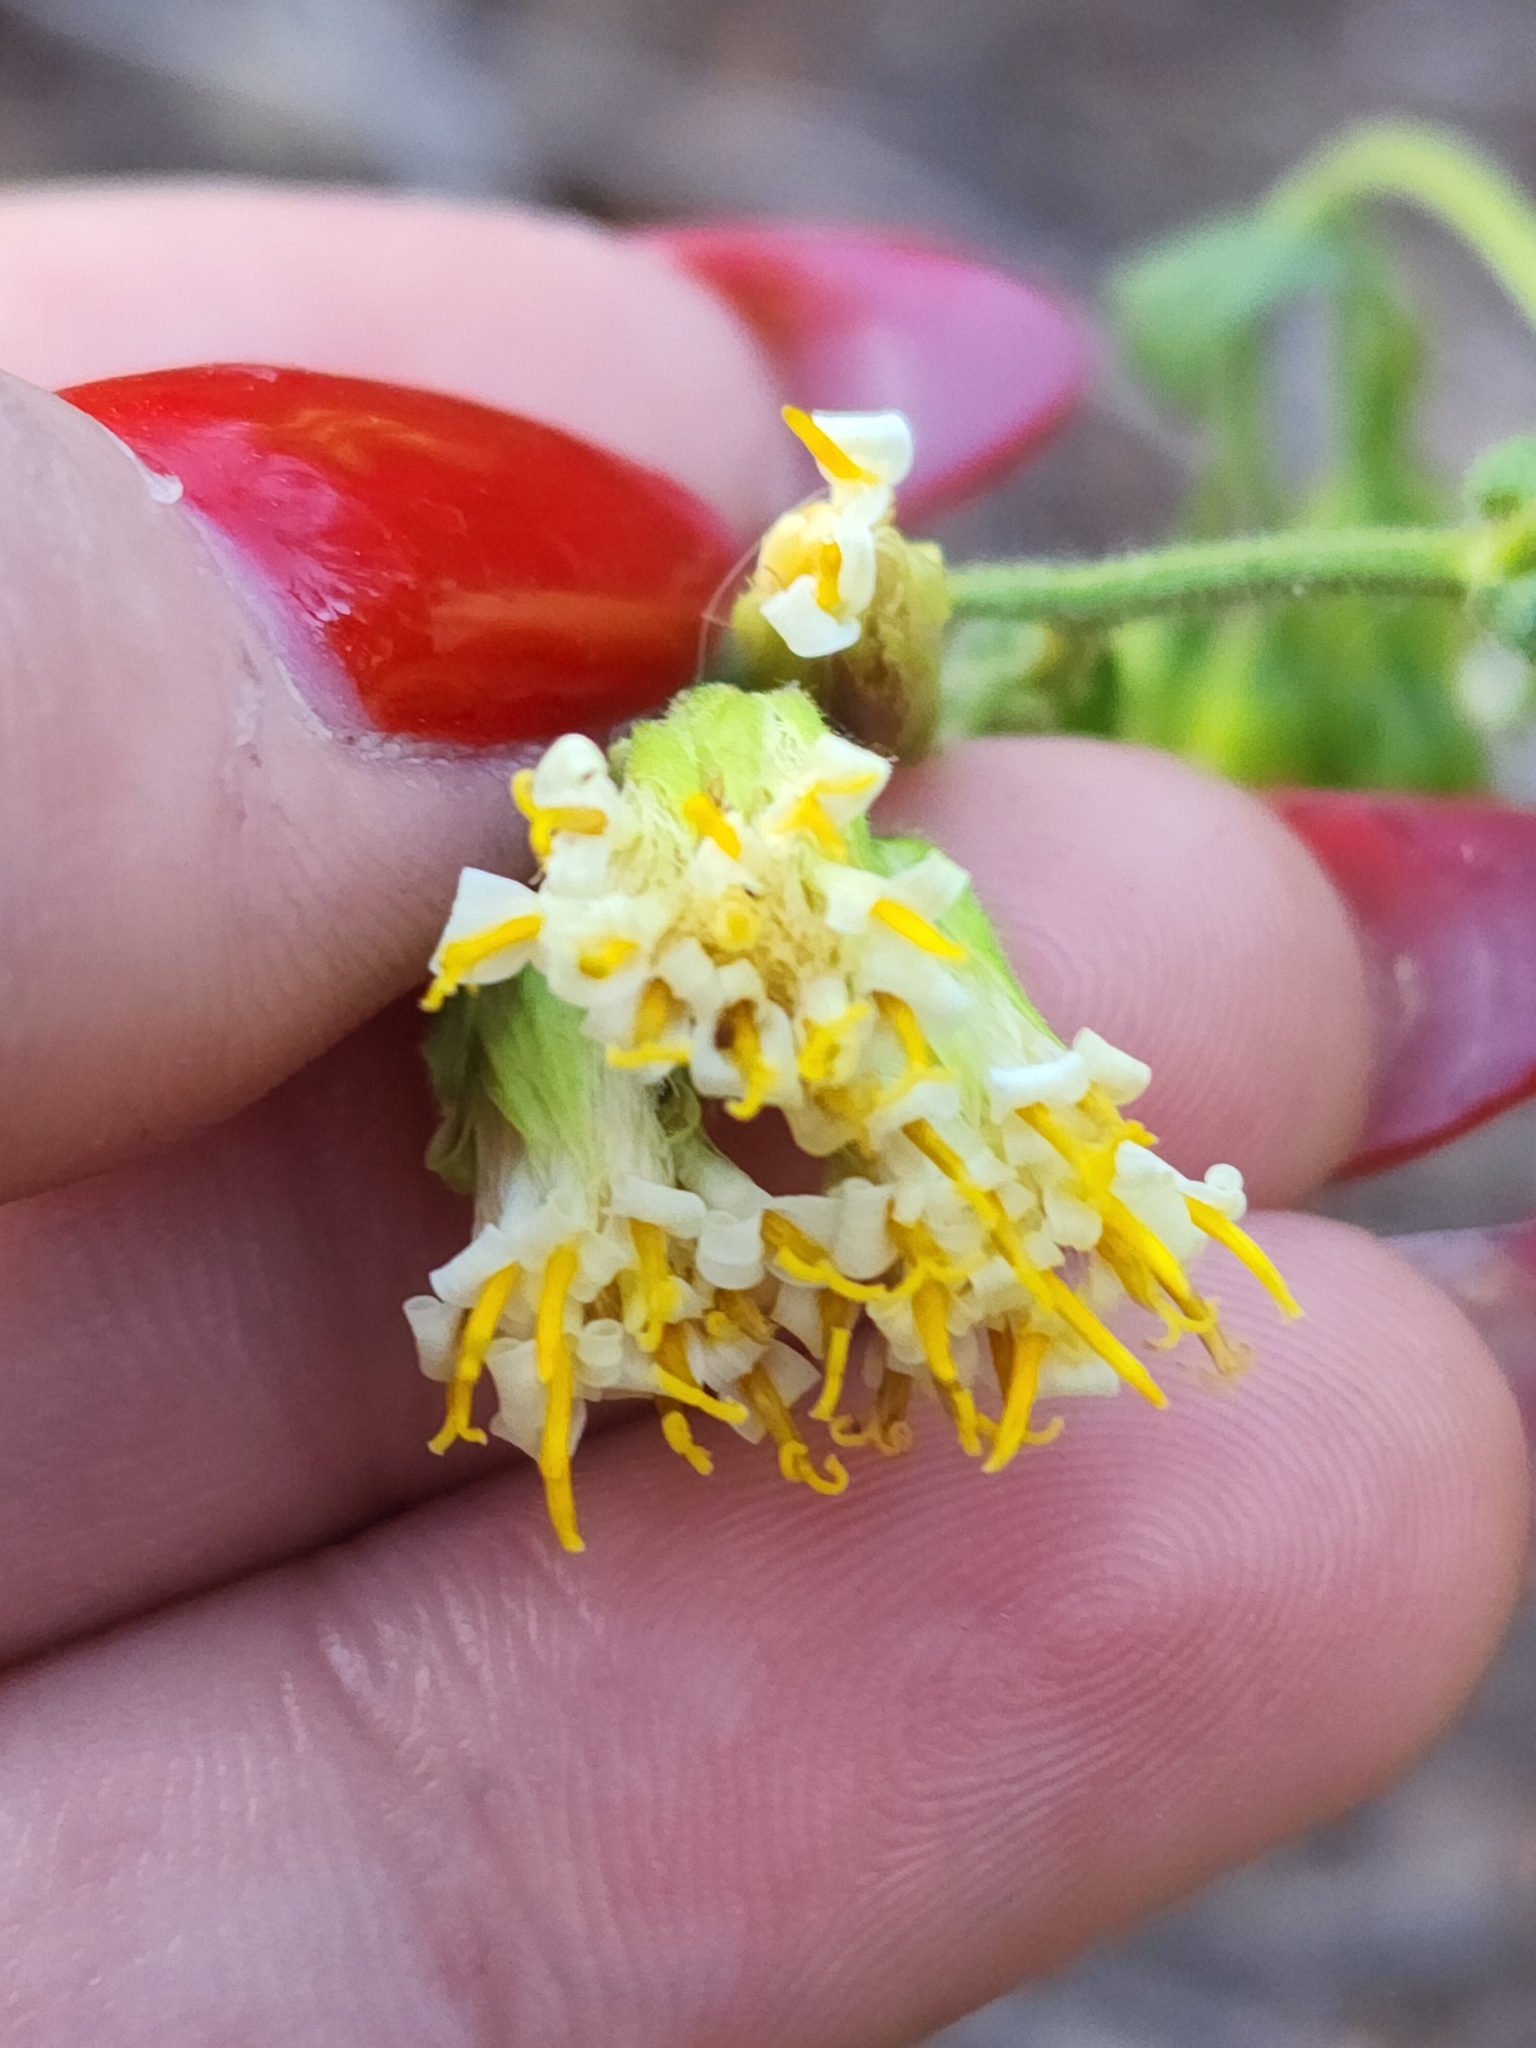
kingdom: Plantae
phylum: Tracheophyta
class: Magnoliopsida
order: Asterales
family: Asteraceae
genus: Trixis
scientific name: Trixis grisebachii
